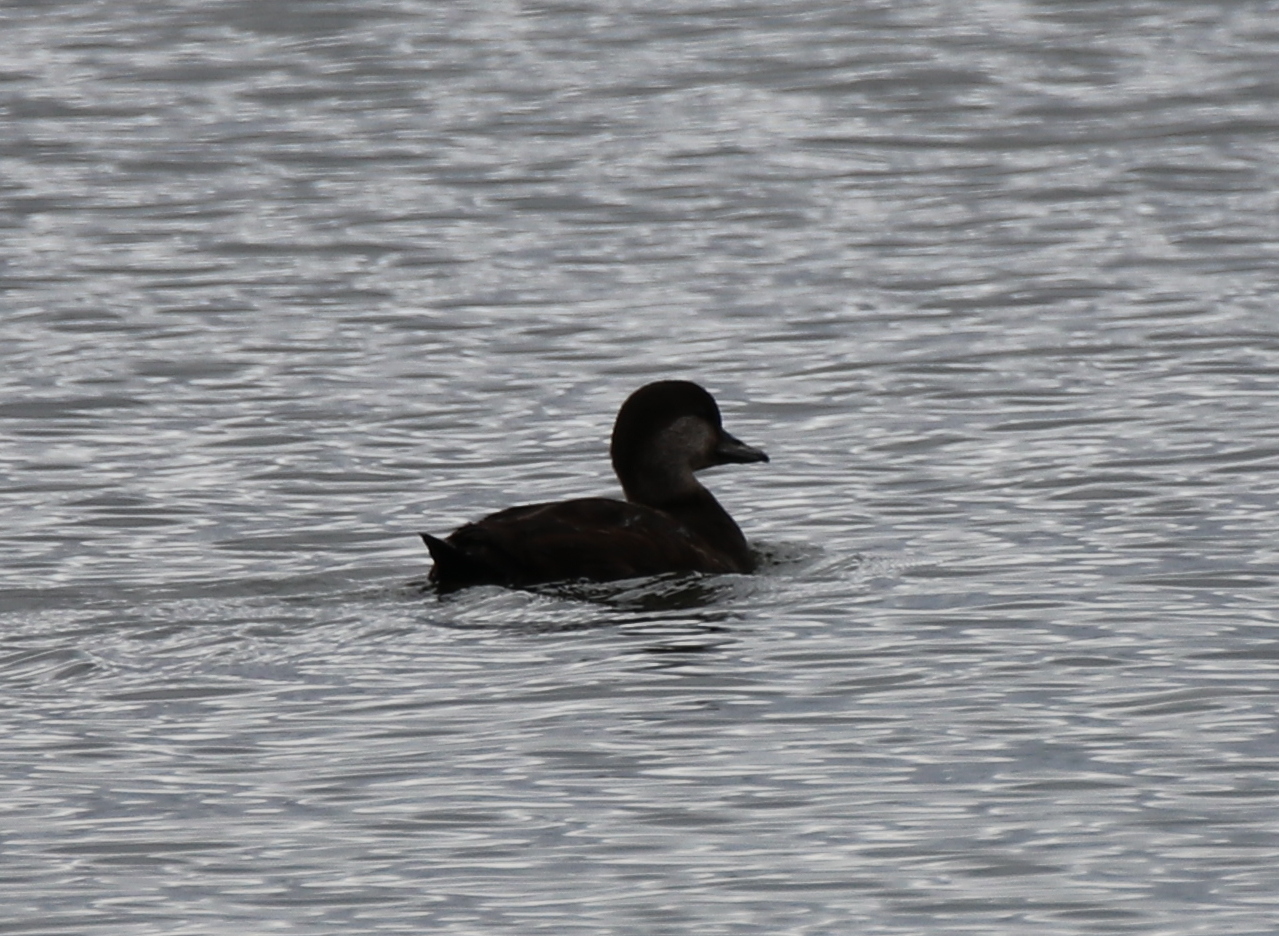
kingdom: Animalia
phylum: Chordata
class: Aves
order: Anseriformes
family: Anatidae
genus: Melanitta
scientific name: Melanitta americana
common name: Black scoter
